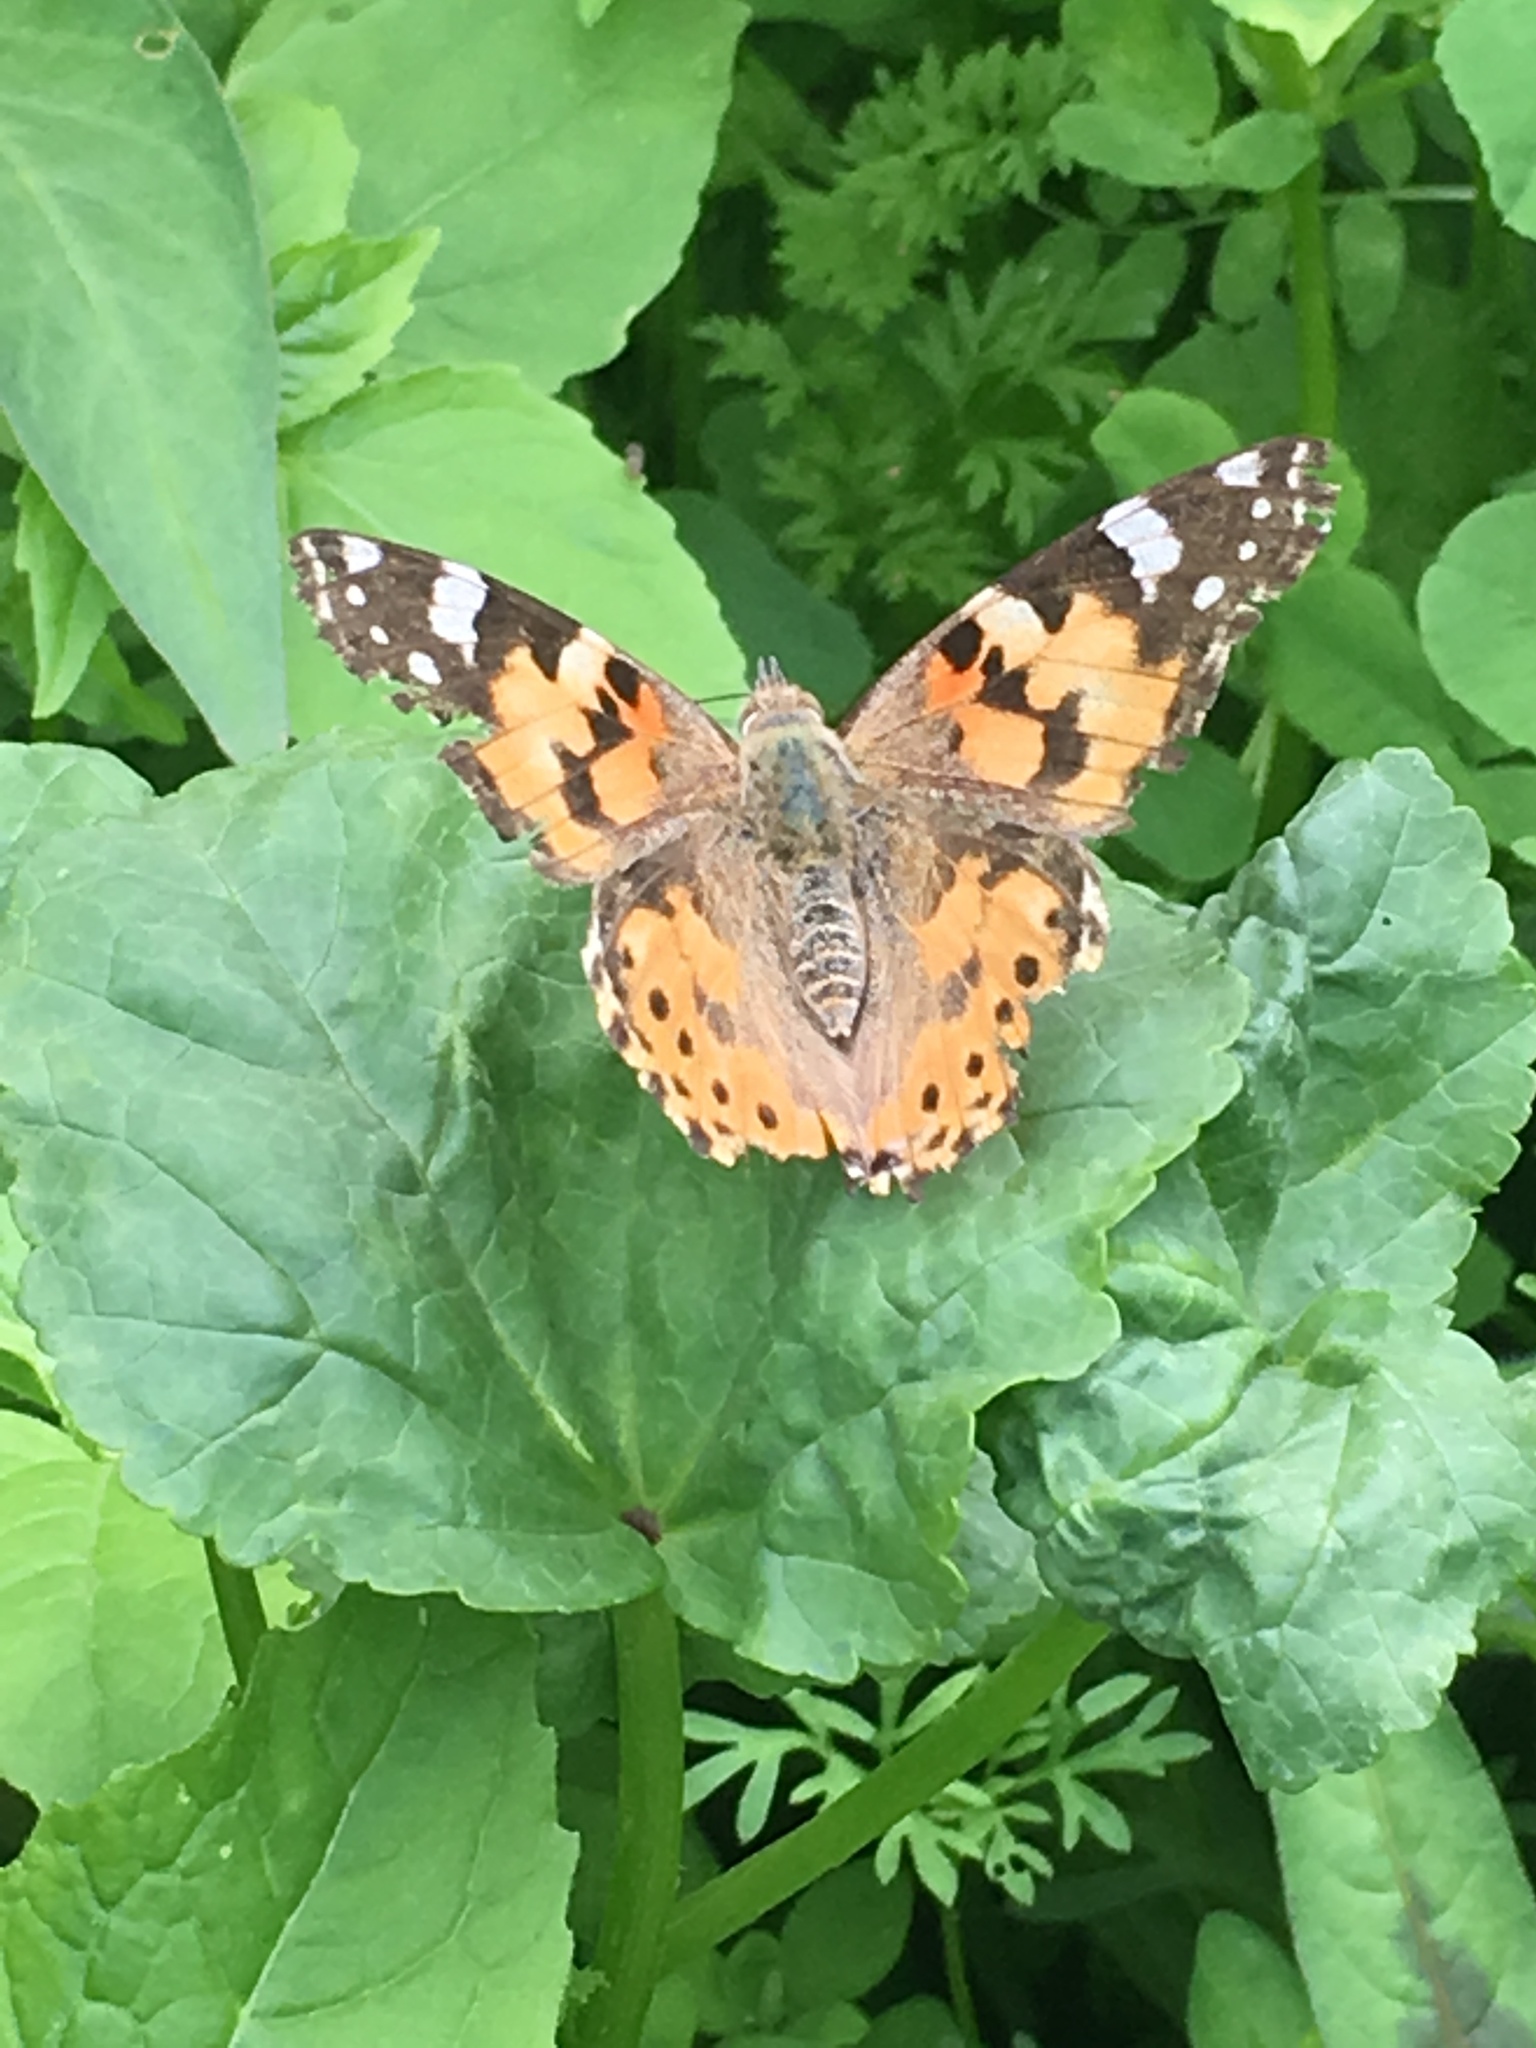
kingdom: Animalia
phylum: Arthropoda
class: Insecta
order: Lepidoptera
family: Nymphalidae
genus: Vanessa
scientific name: Vanessa cardui
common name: Painted lady
